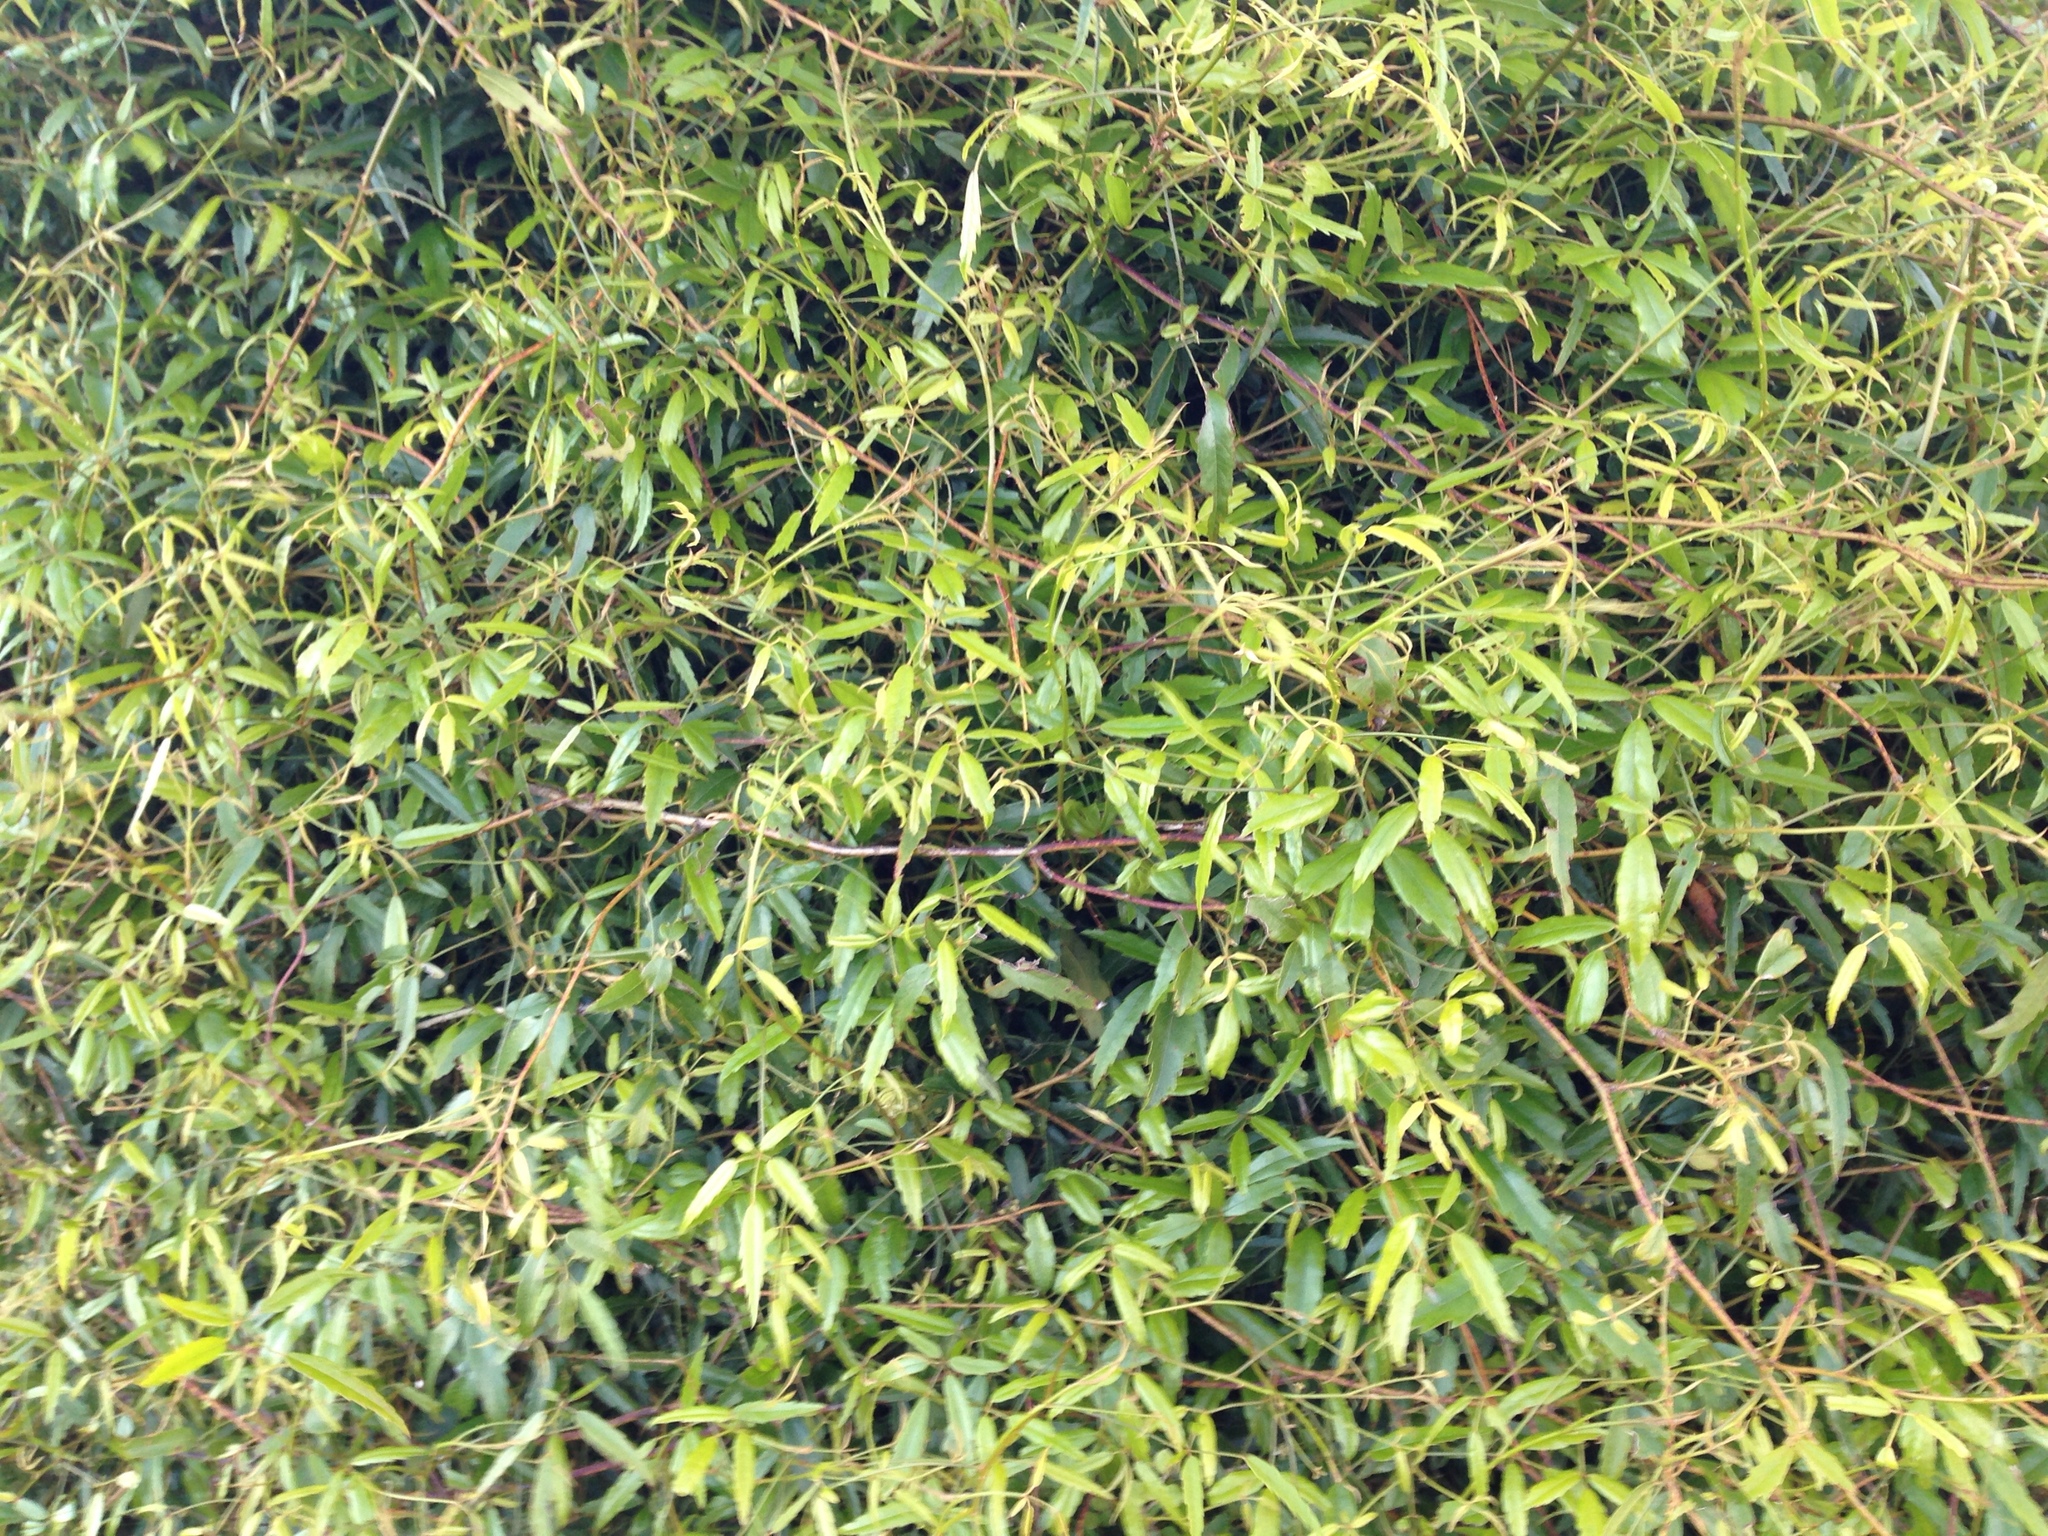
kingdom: Plantae
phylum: Tracheophyta
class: Magnoliopsida
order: Rosales
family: Rosaceae
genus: Rubus
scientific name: Rubus cissoides
